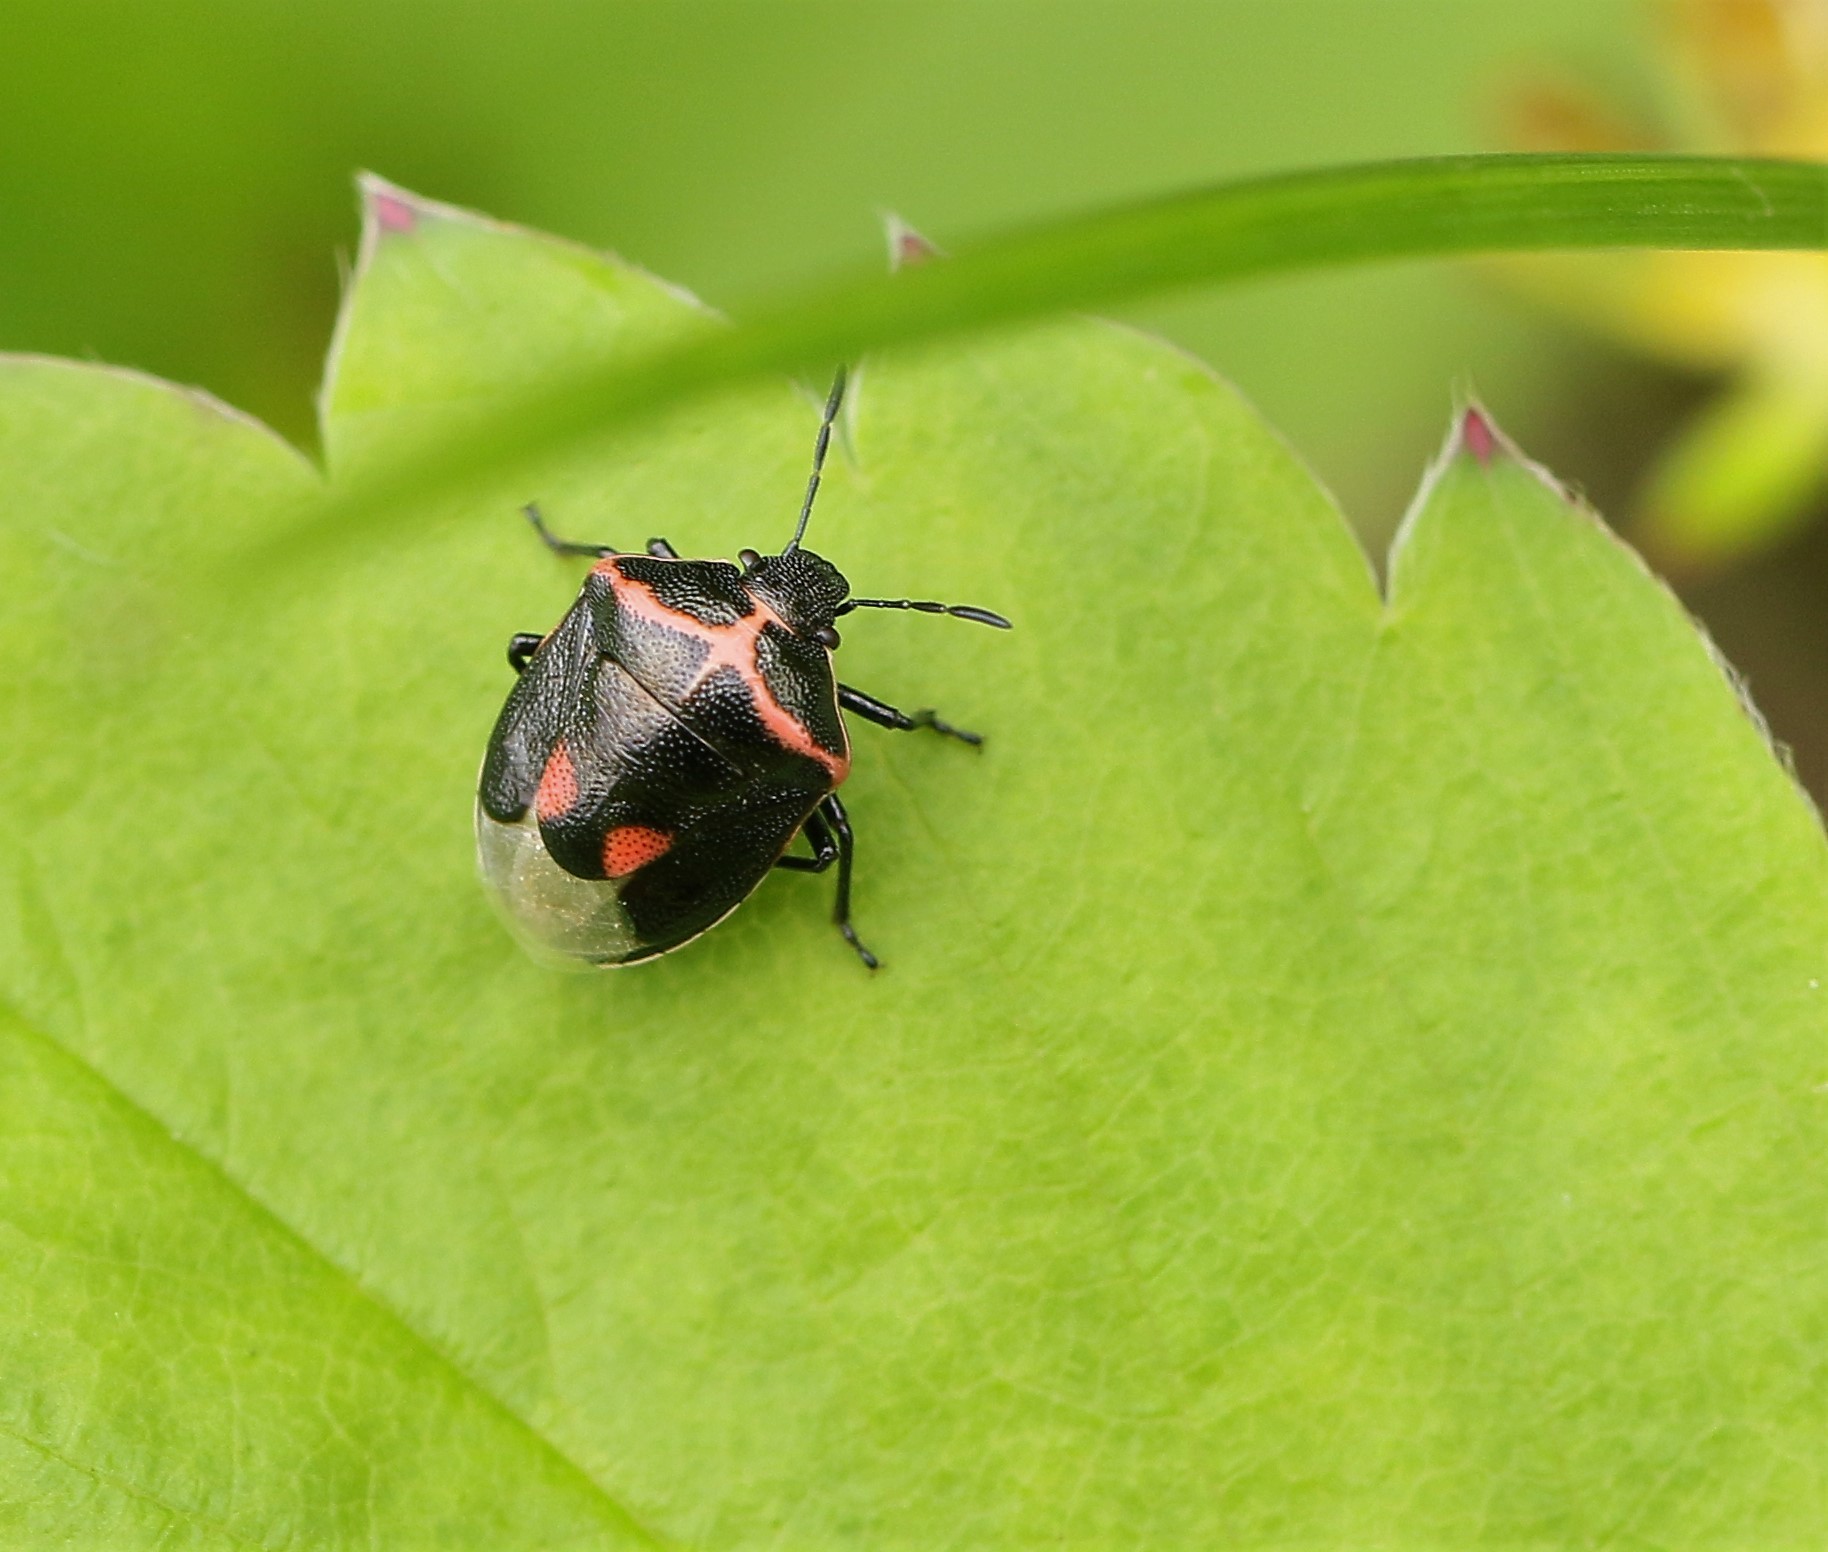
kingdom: Animalia
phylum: Arthropoda
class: Insecta
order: Hemiptera
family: Pentatomidae
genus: Cosmopepla
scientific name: Cosmopepla lintneriana
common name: Twice-stabbed stink bug
